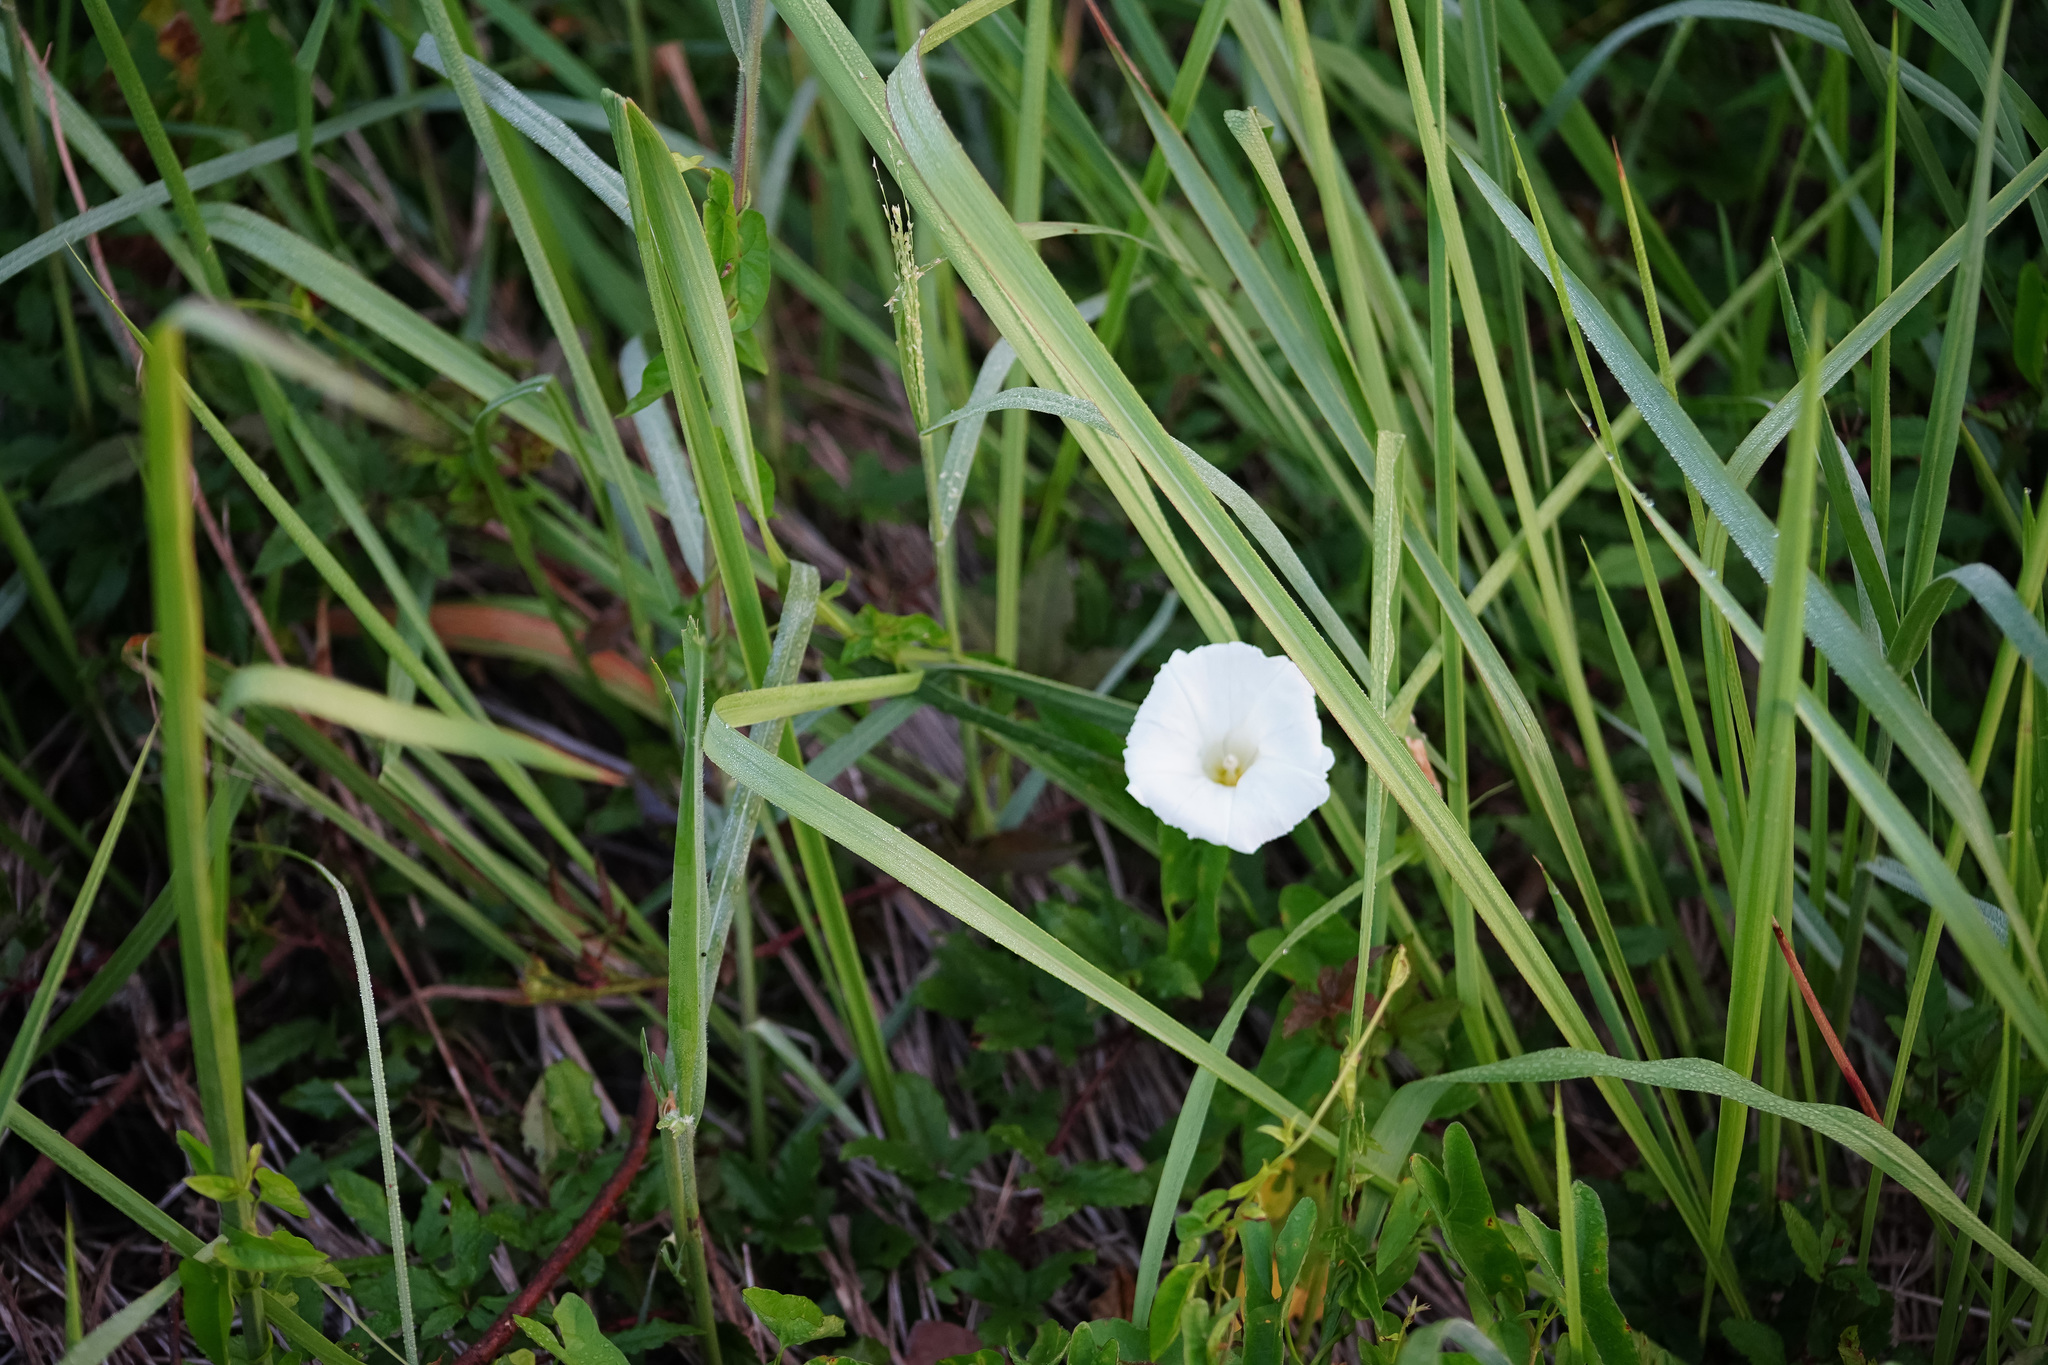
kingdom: Plantae
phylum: Tracheophyta
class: Magnoliopsida
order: Solanales
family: Convolvulaceae
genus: Ipomoea
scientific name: Ipomoea imperati
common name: Fiddle-leaf morning-glory
